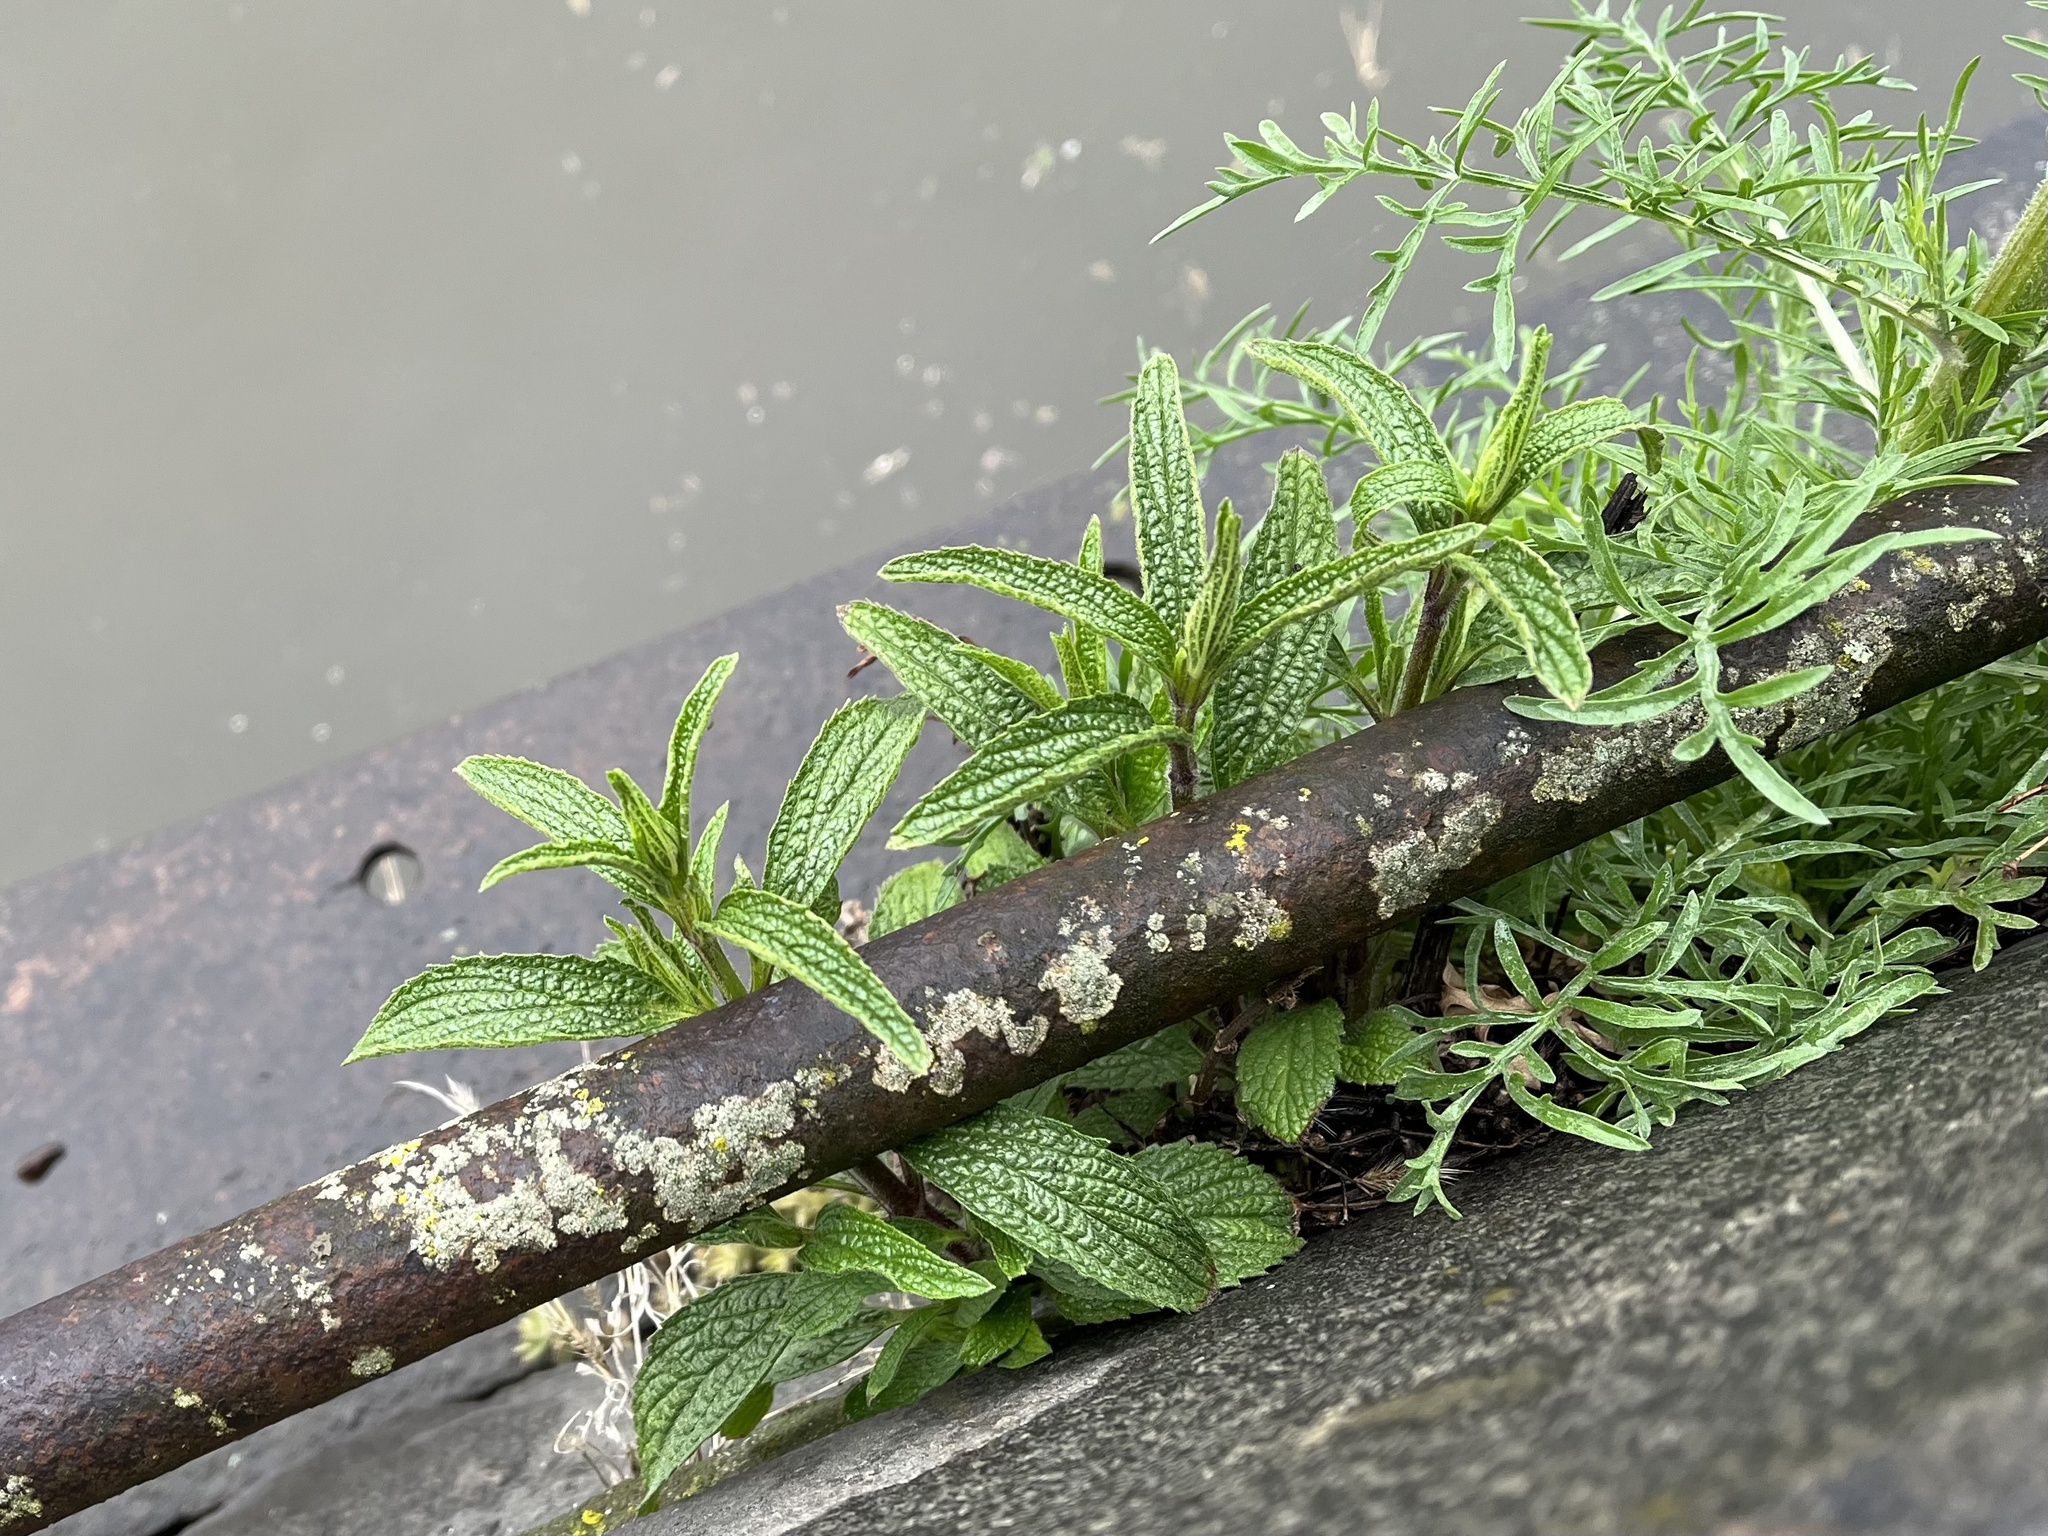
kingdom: Plantae
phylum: Tracheophyta
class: Magnoliopsida
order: Lamiales
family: Lamiaceae
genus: Stachys
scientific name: Stachys recta
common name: Perennial yellow-woundwort
